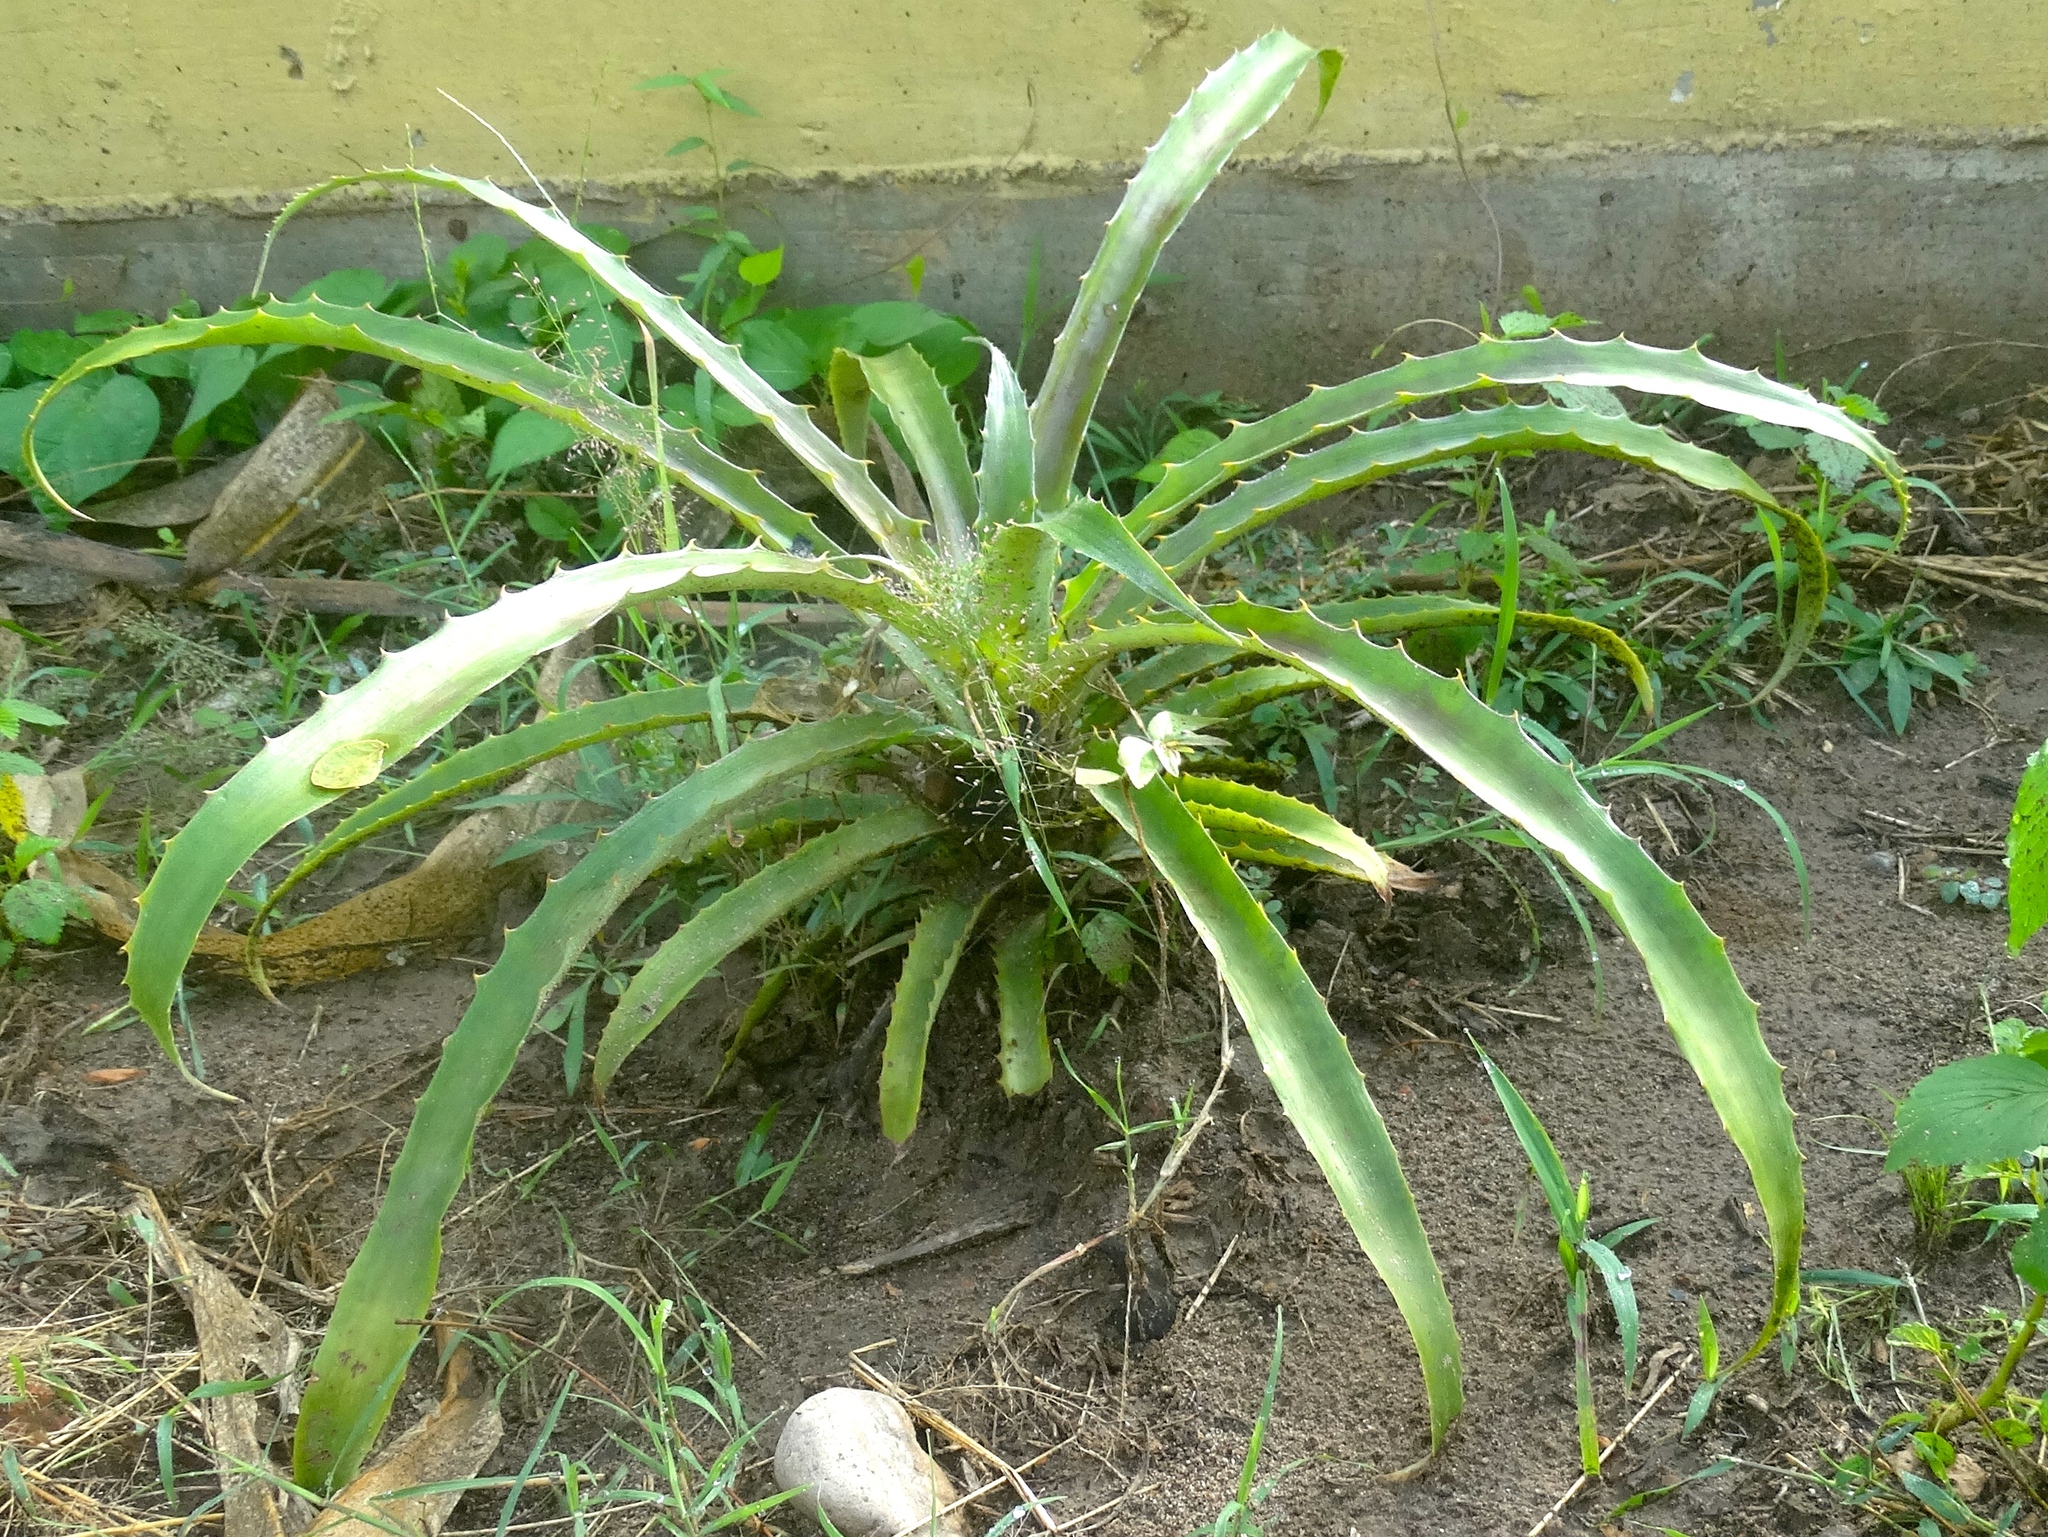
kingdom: Plantae
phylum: Tracheophyta
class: Liliopsida
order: Poales
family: Bromeliaceae
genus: Bromelia
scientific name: Bromelia karatas
